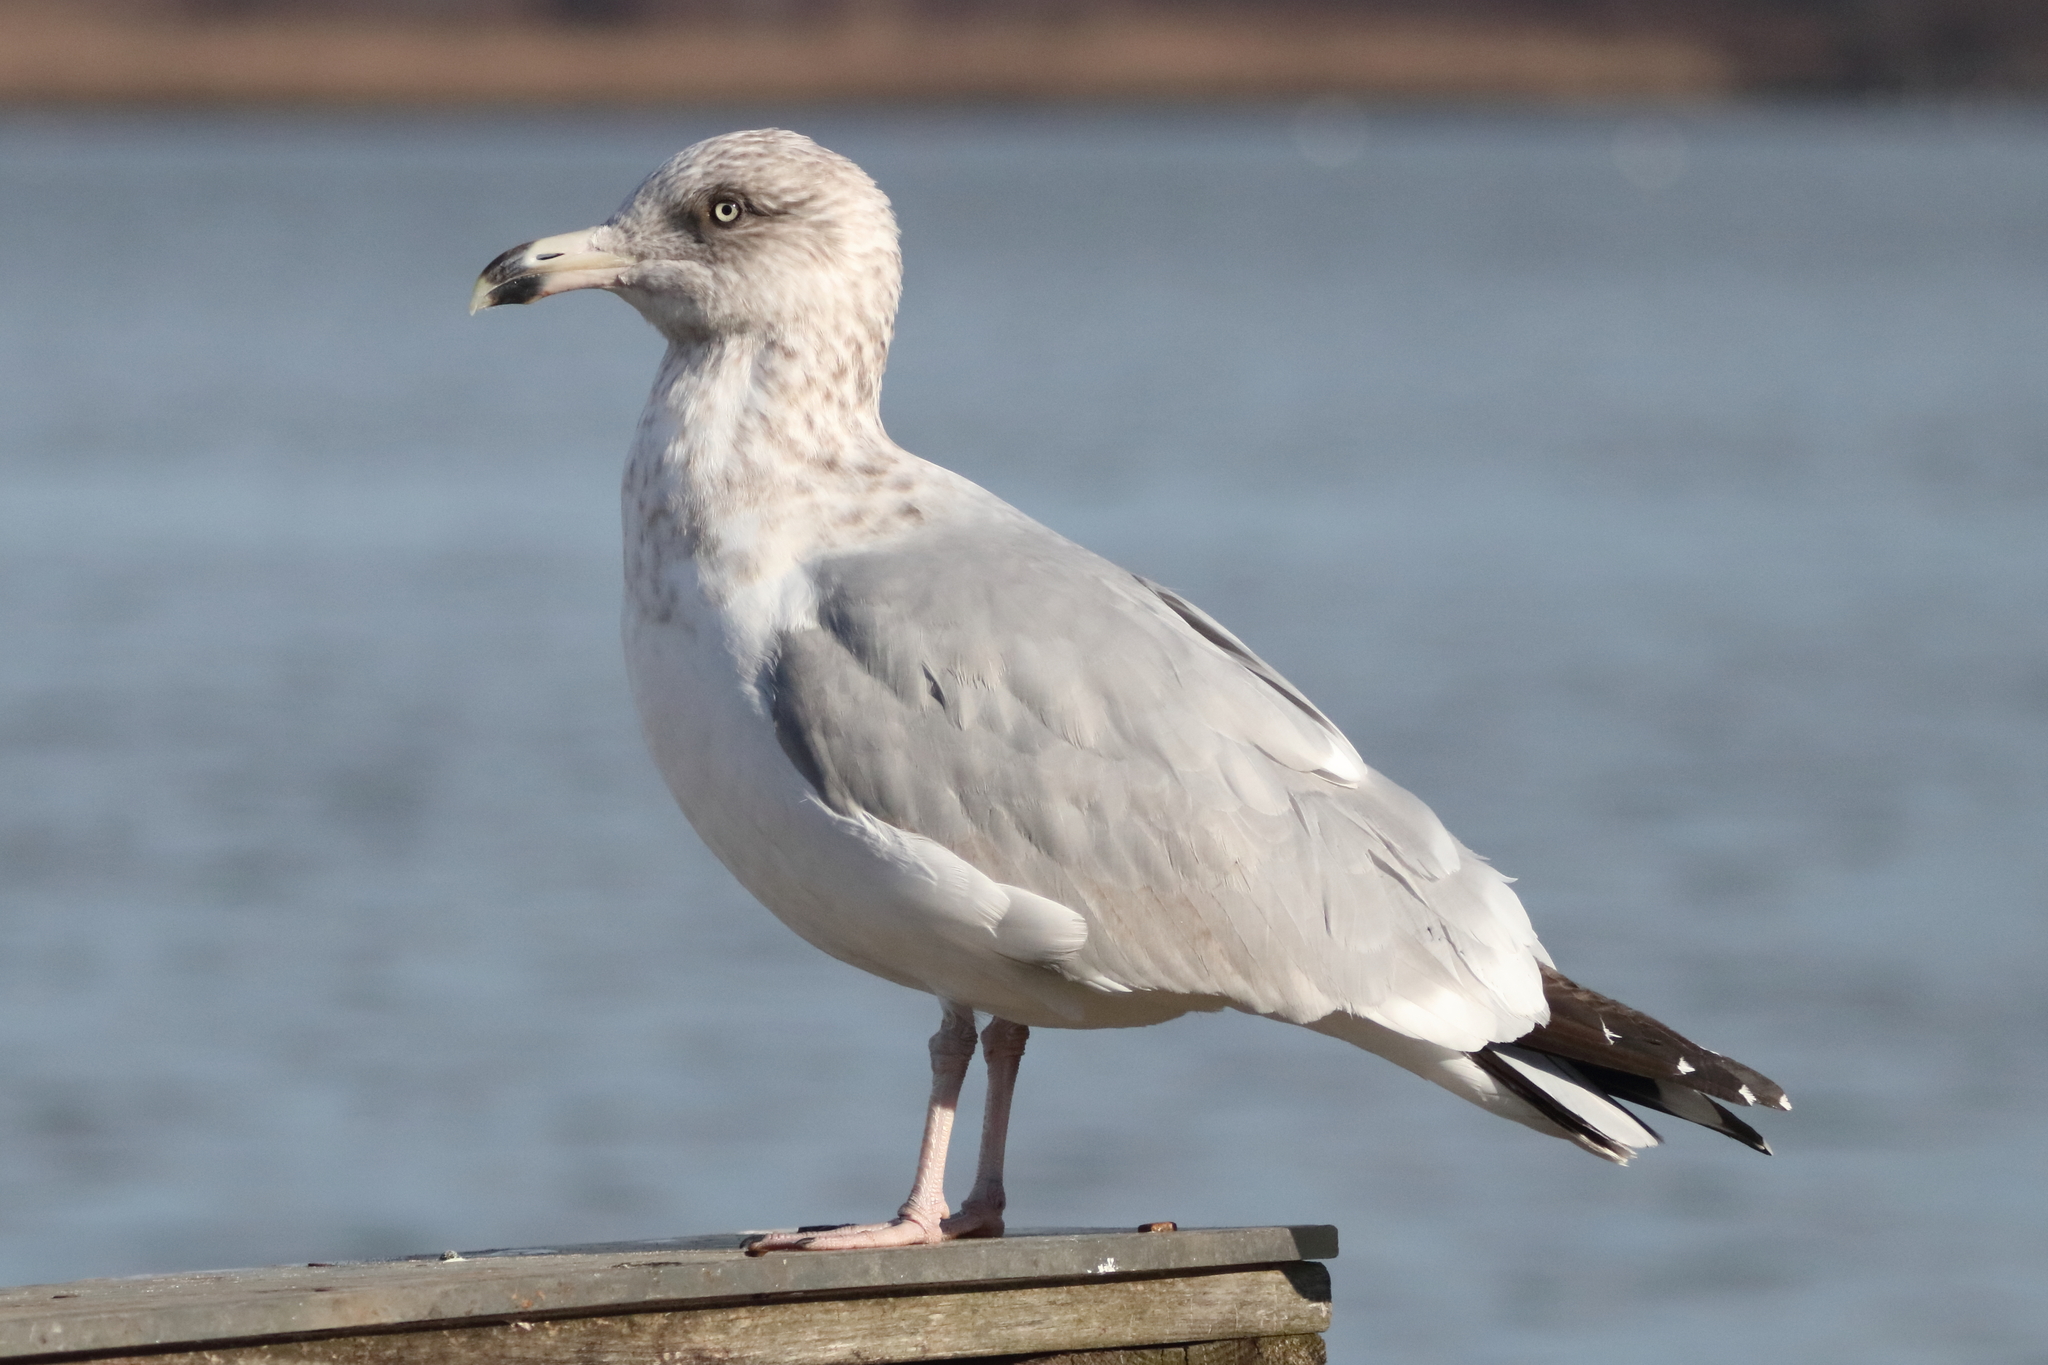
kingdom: Animalia
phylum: Chordata
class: Aves
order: Charadriiformes
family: Laridae
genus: Larus
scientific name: Larus smithsonianus
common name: American herring gull
